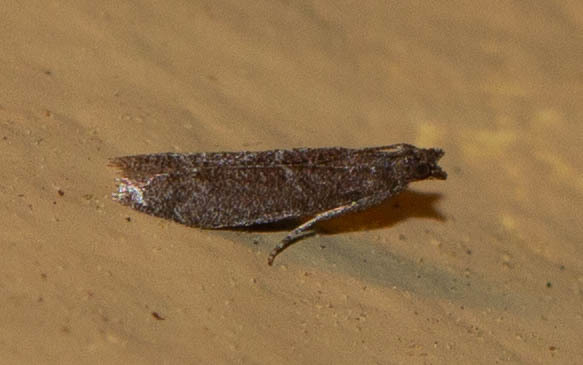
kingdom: Animalia
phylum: Arthropoda
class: Insecta
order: Lepidoptera
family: Pyralidae
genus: Cabnia
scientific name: Cabnia myronella
